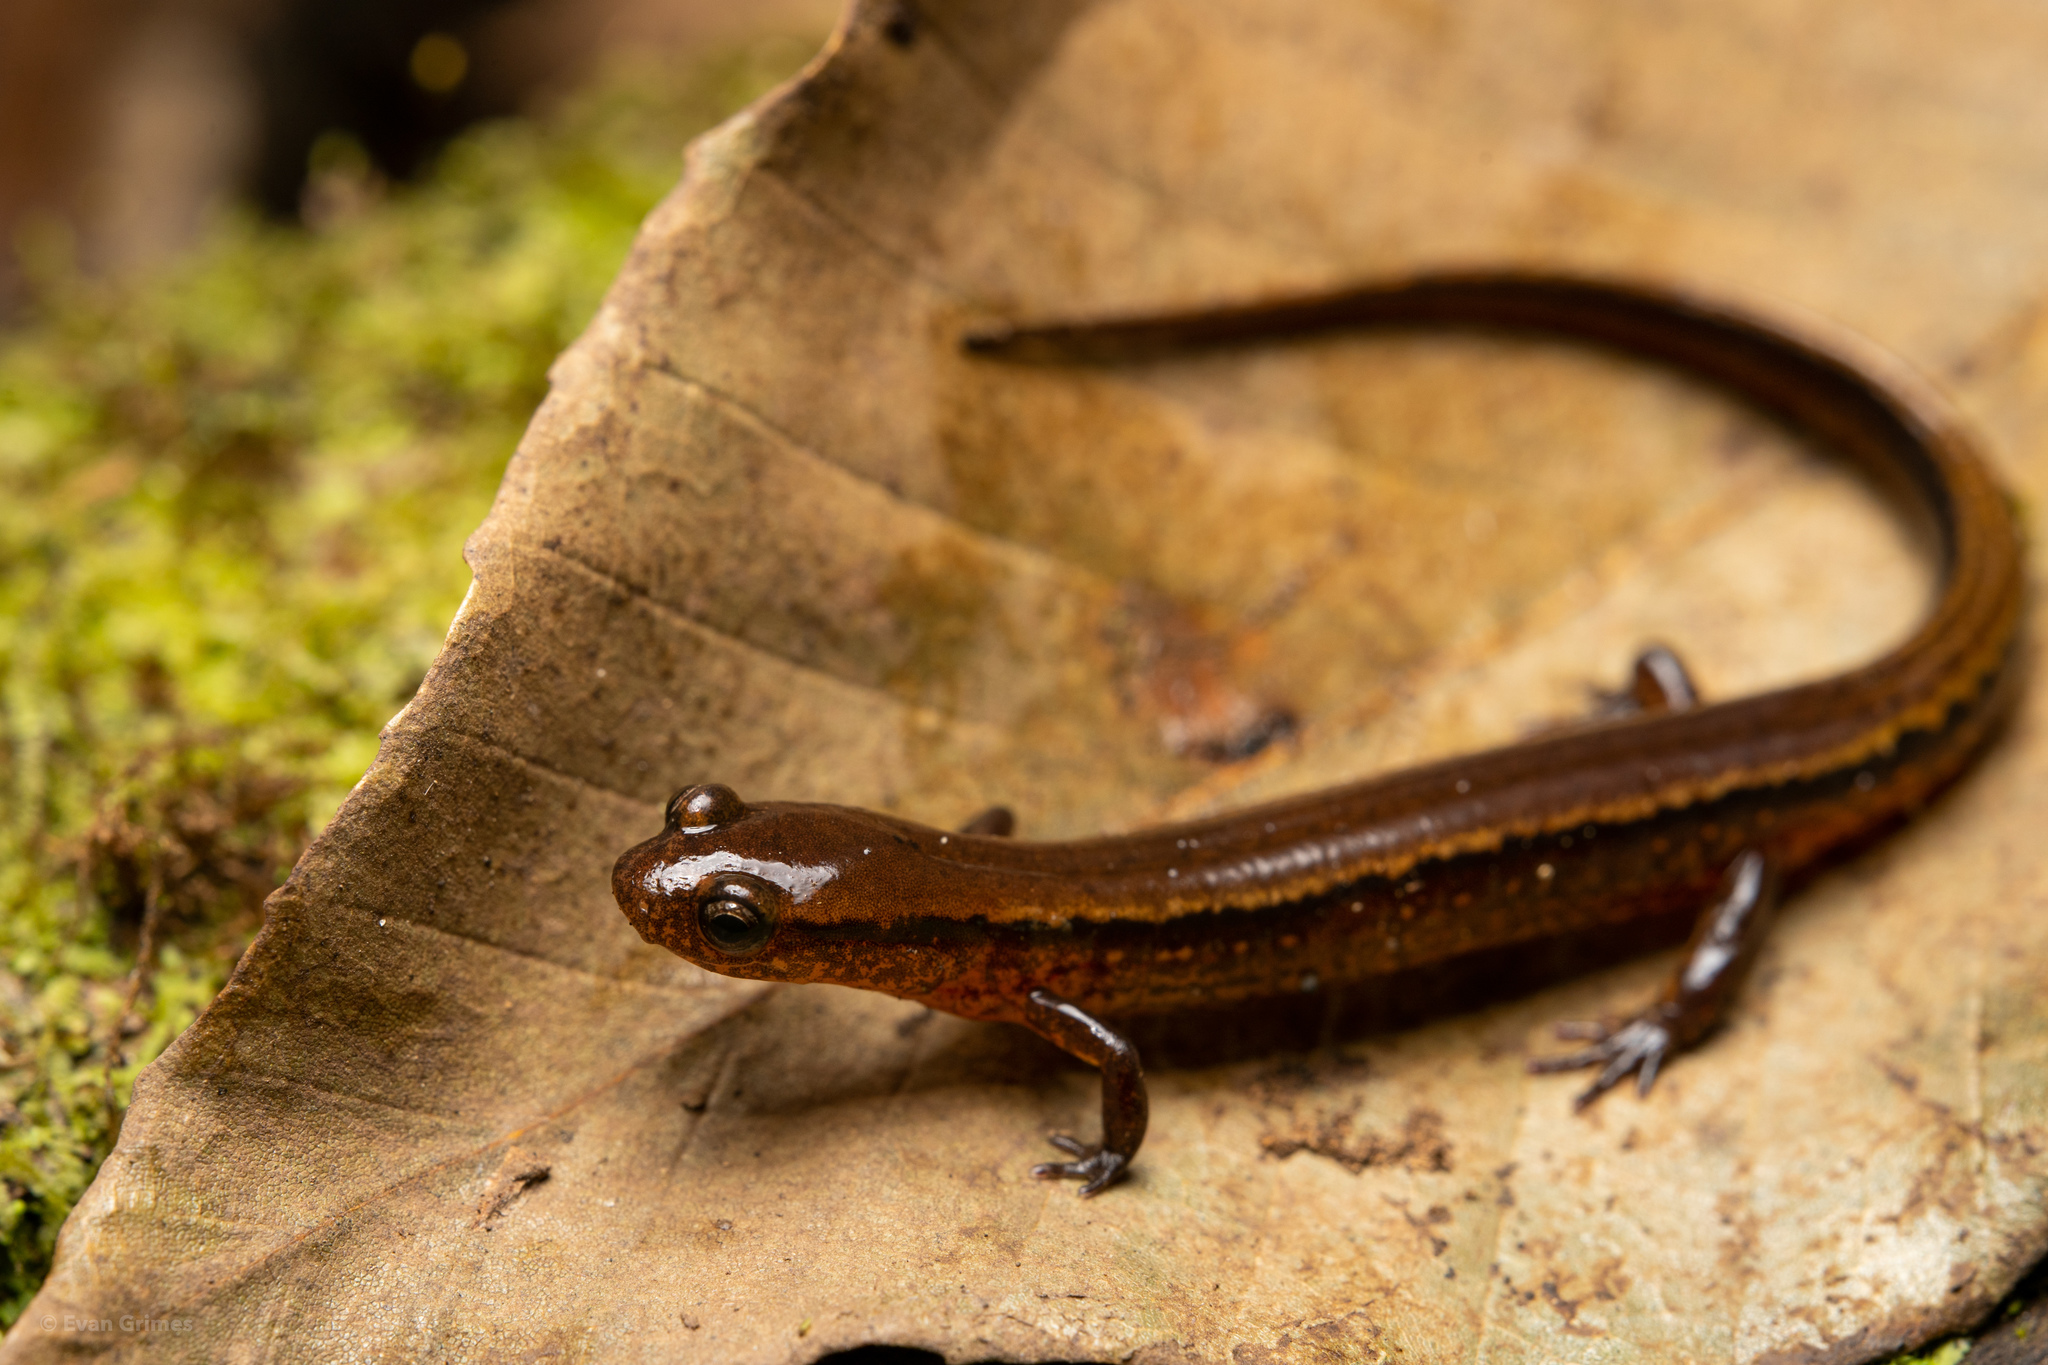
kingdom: Animalia
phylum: Chordata
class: Amphibia
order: Caudata
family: Plethodontidae
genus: Eurycea
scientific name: Eurycea cirrigera
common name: Southern two-lined salamander
